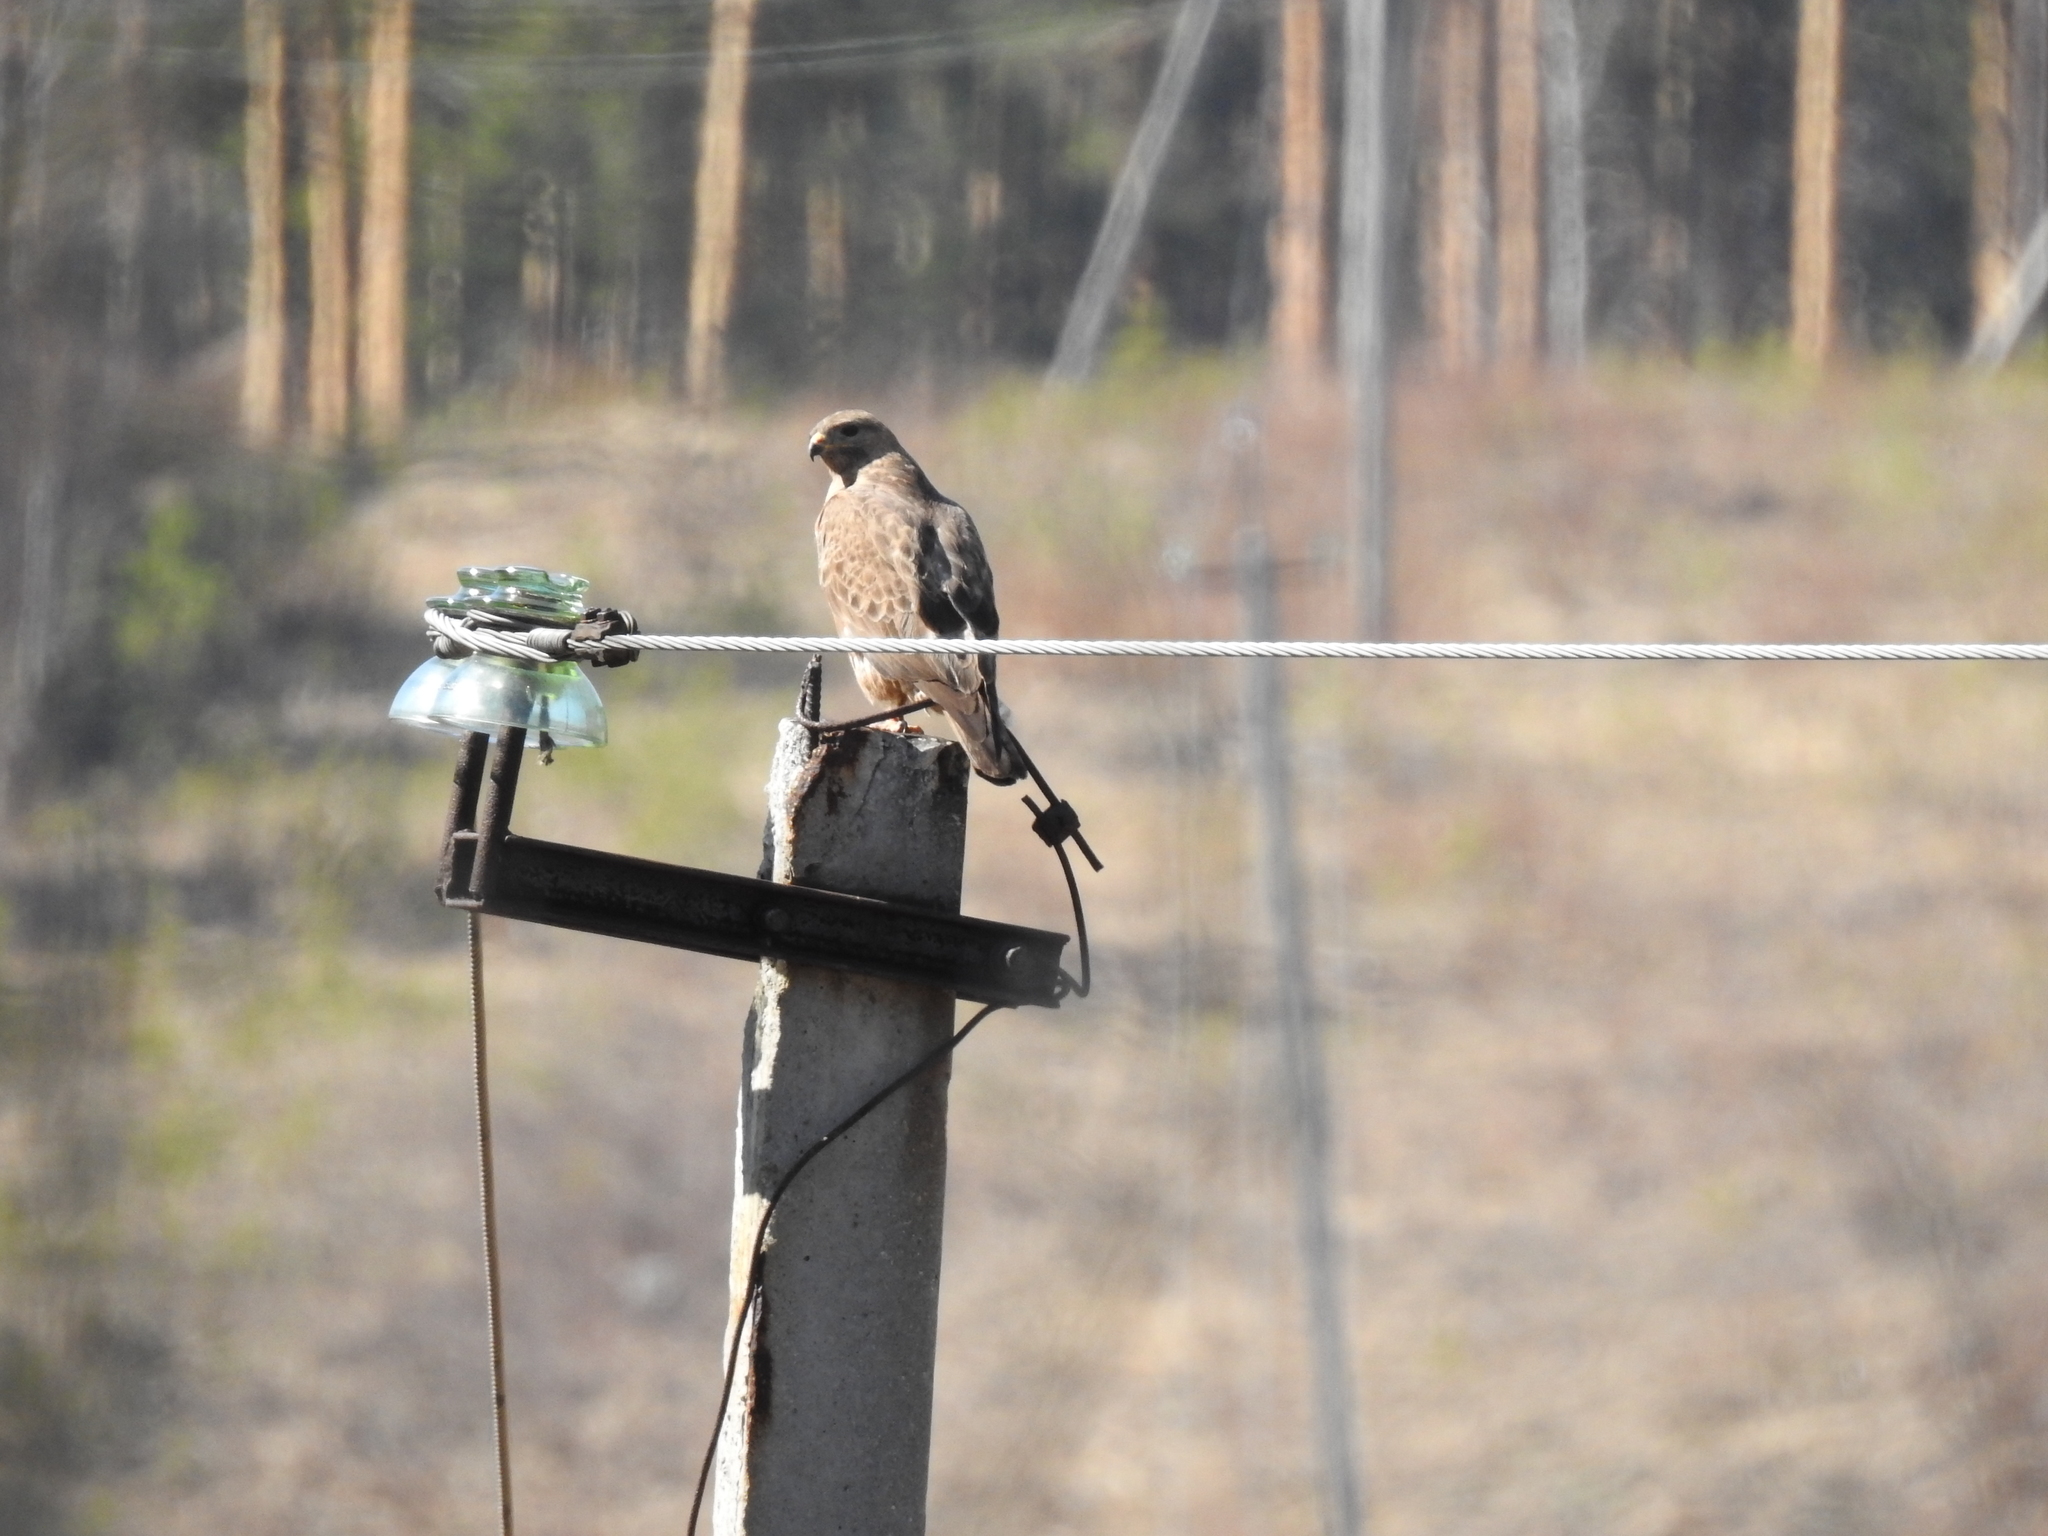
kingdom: Animalia
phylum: Chordata
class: Aves
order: Accipitriformes
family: Accipitridae
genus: Buteo
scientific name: Buteo buteo
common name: Common buzzard
